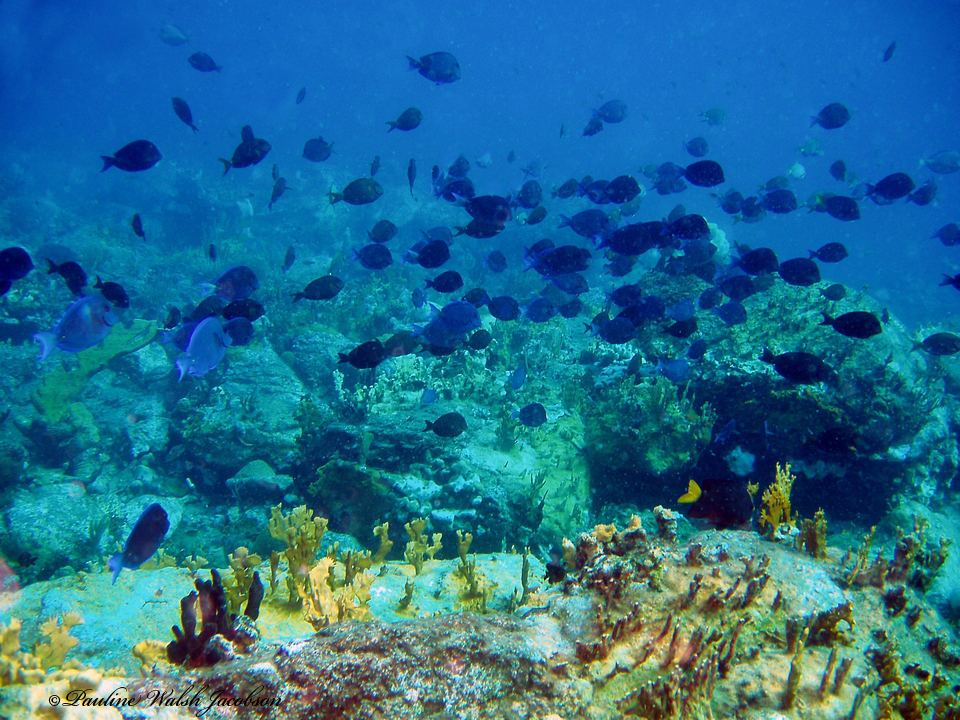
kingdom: Animalia
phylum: Chordata
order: Perciformes
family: Acanthuridae
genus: Acanthurus
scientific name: Acanthurus coeruleus
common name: Blue tang
